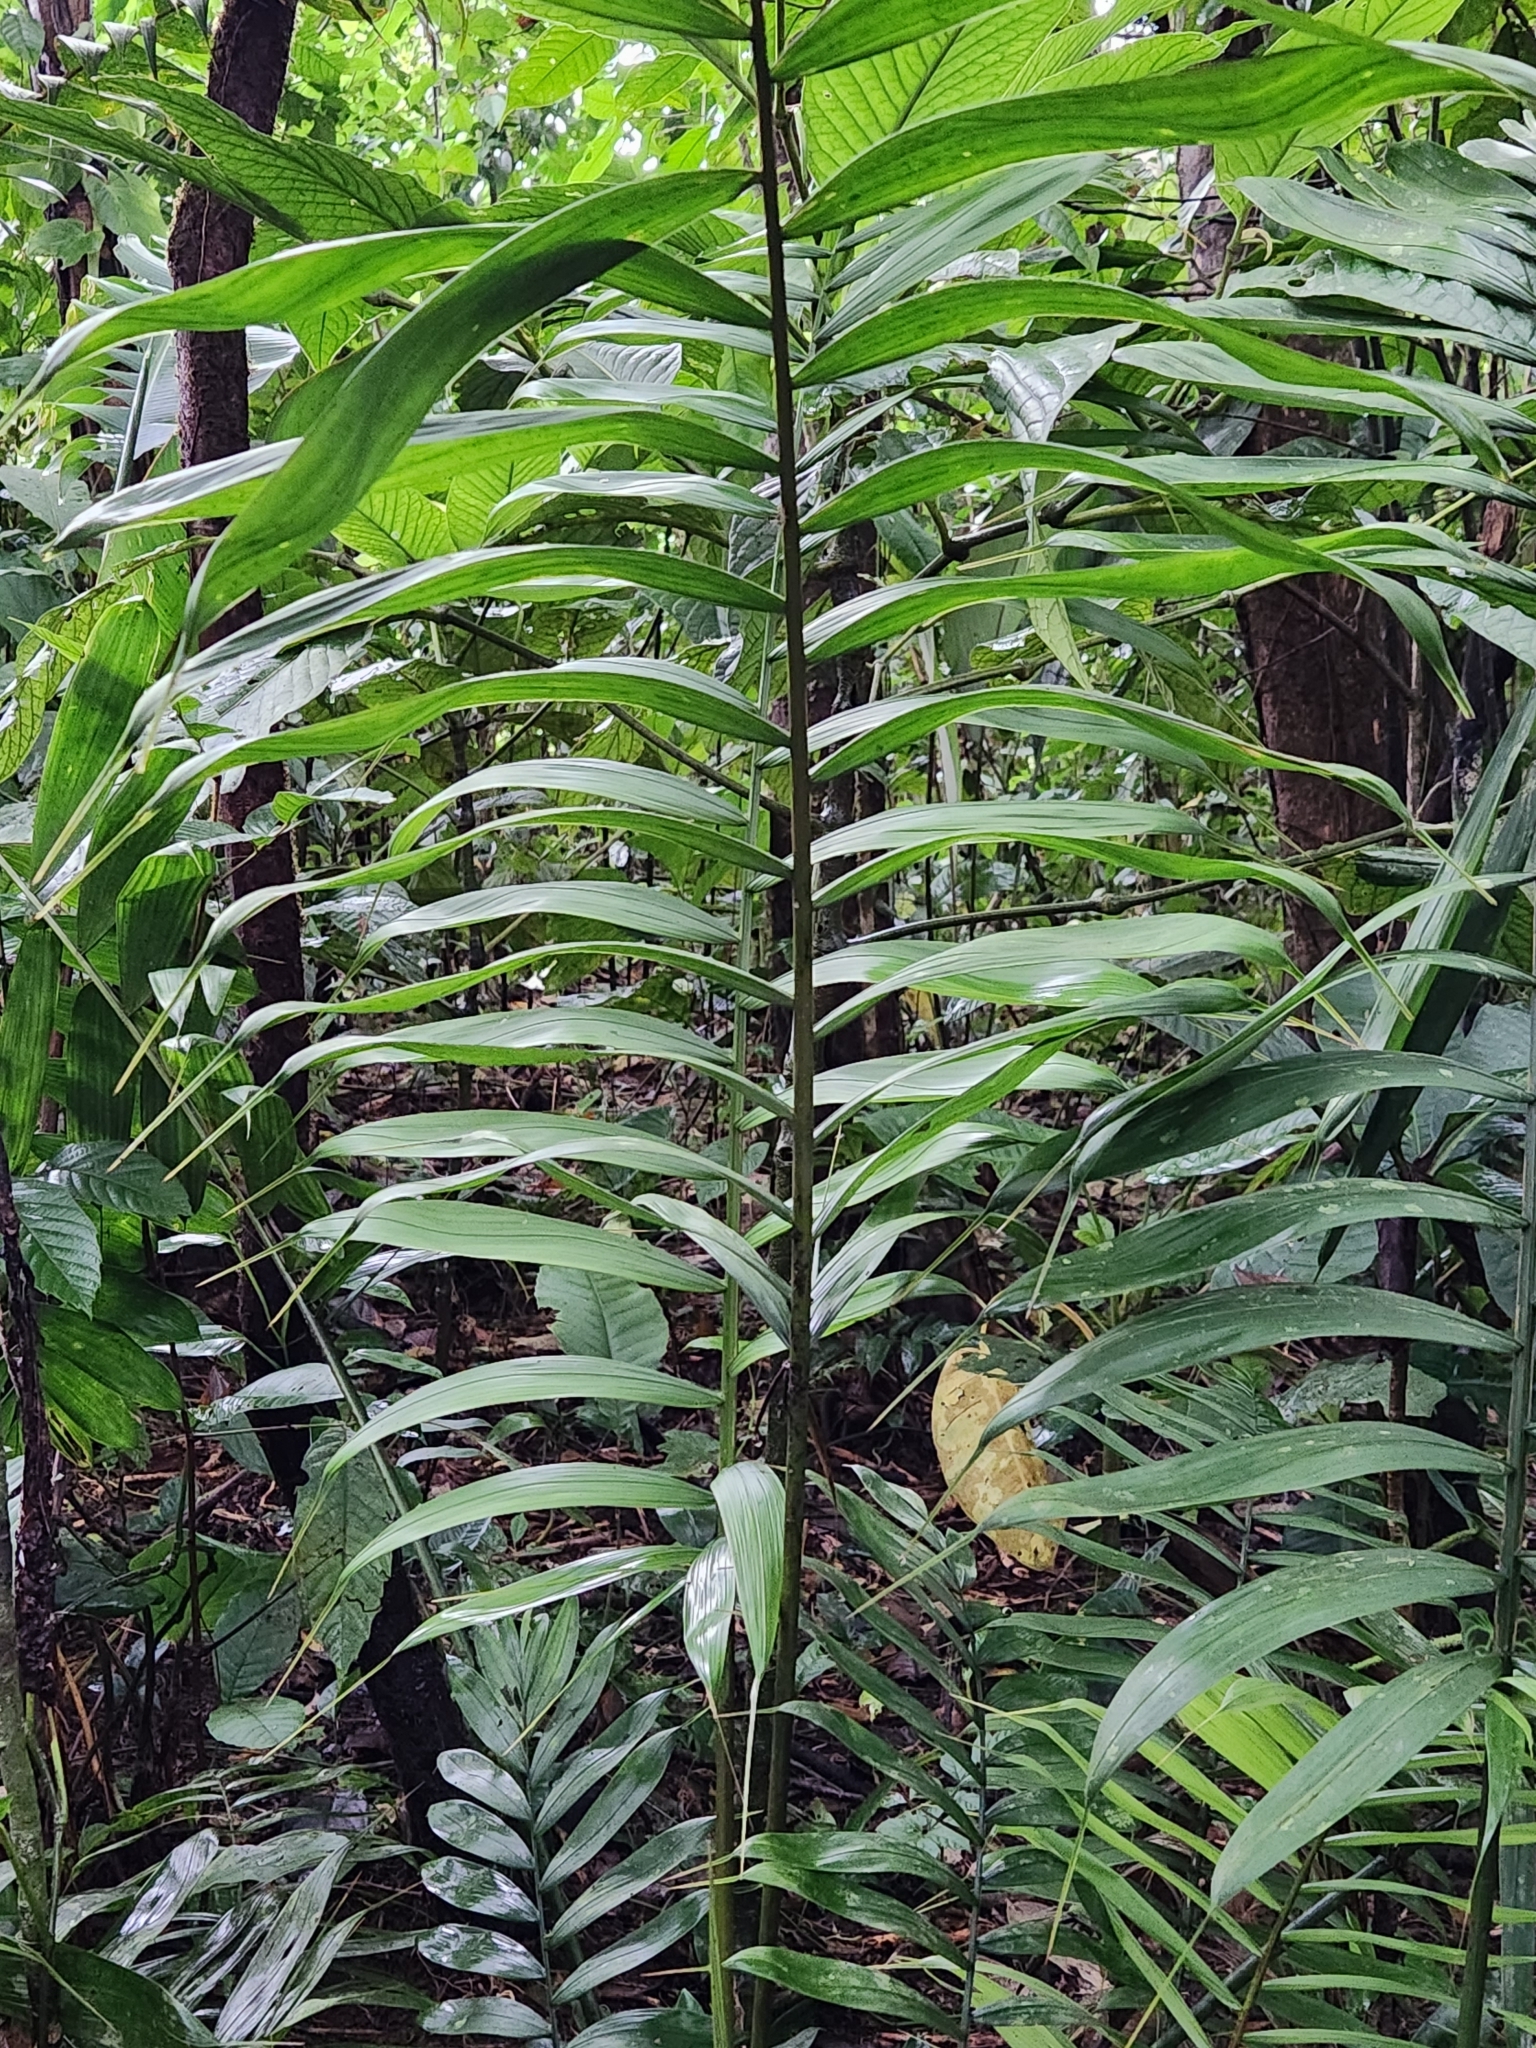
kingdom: Plantae
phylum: Tracheophyta
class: Liliopsida
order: Arecales
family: Arecaceae
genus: Chamaedorea
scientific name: Chamaedorea tepejilote
